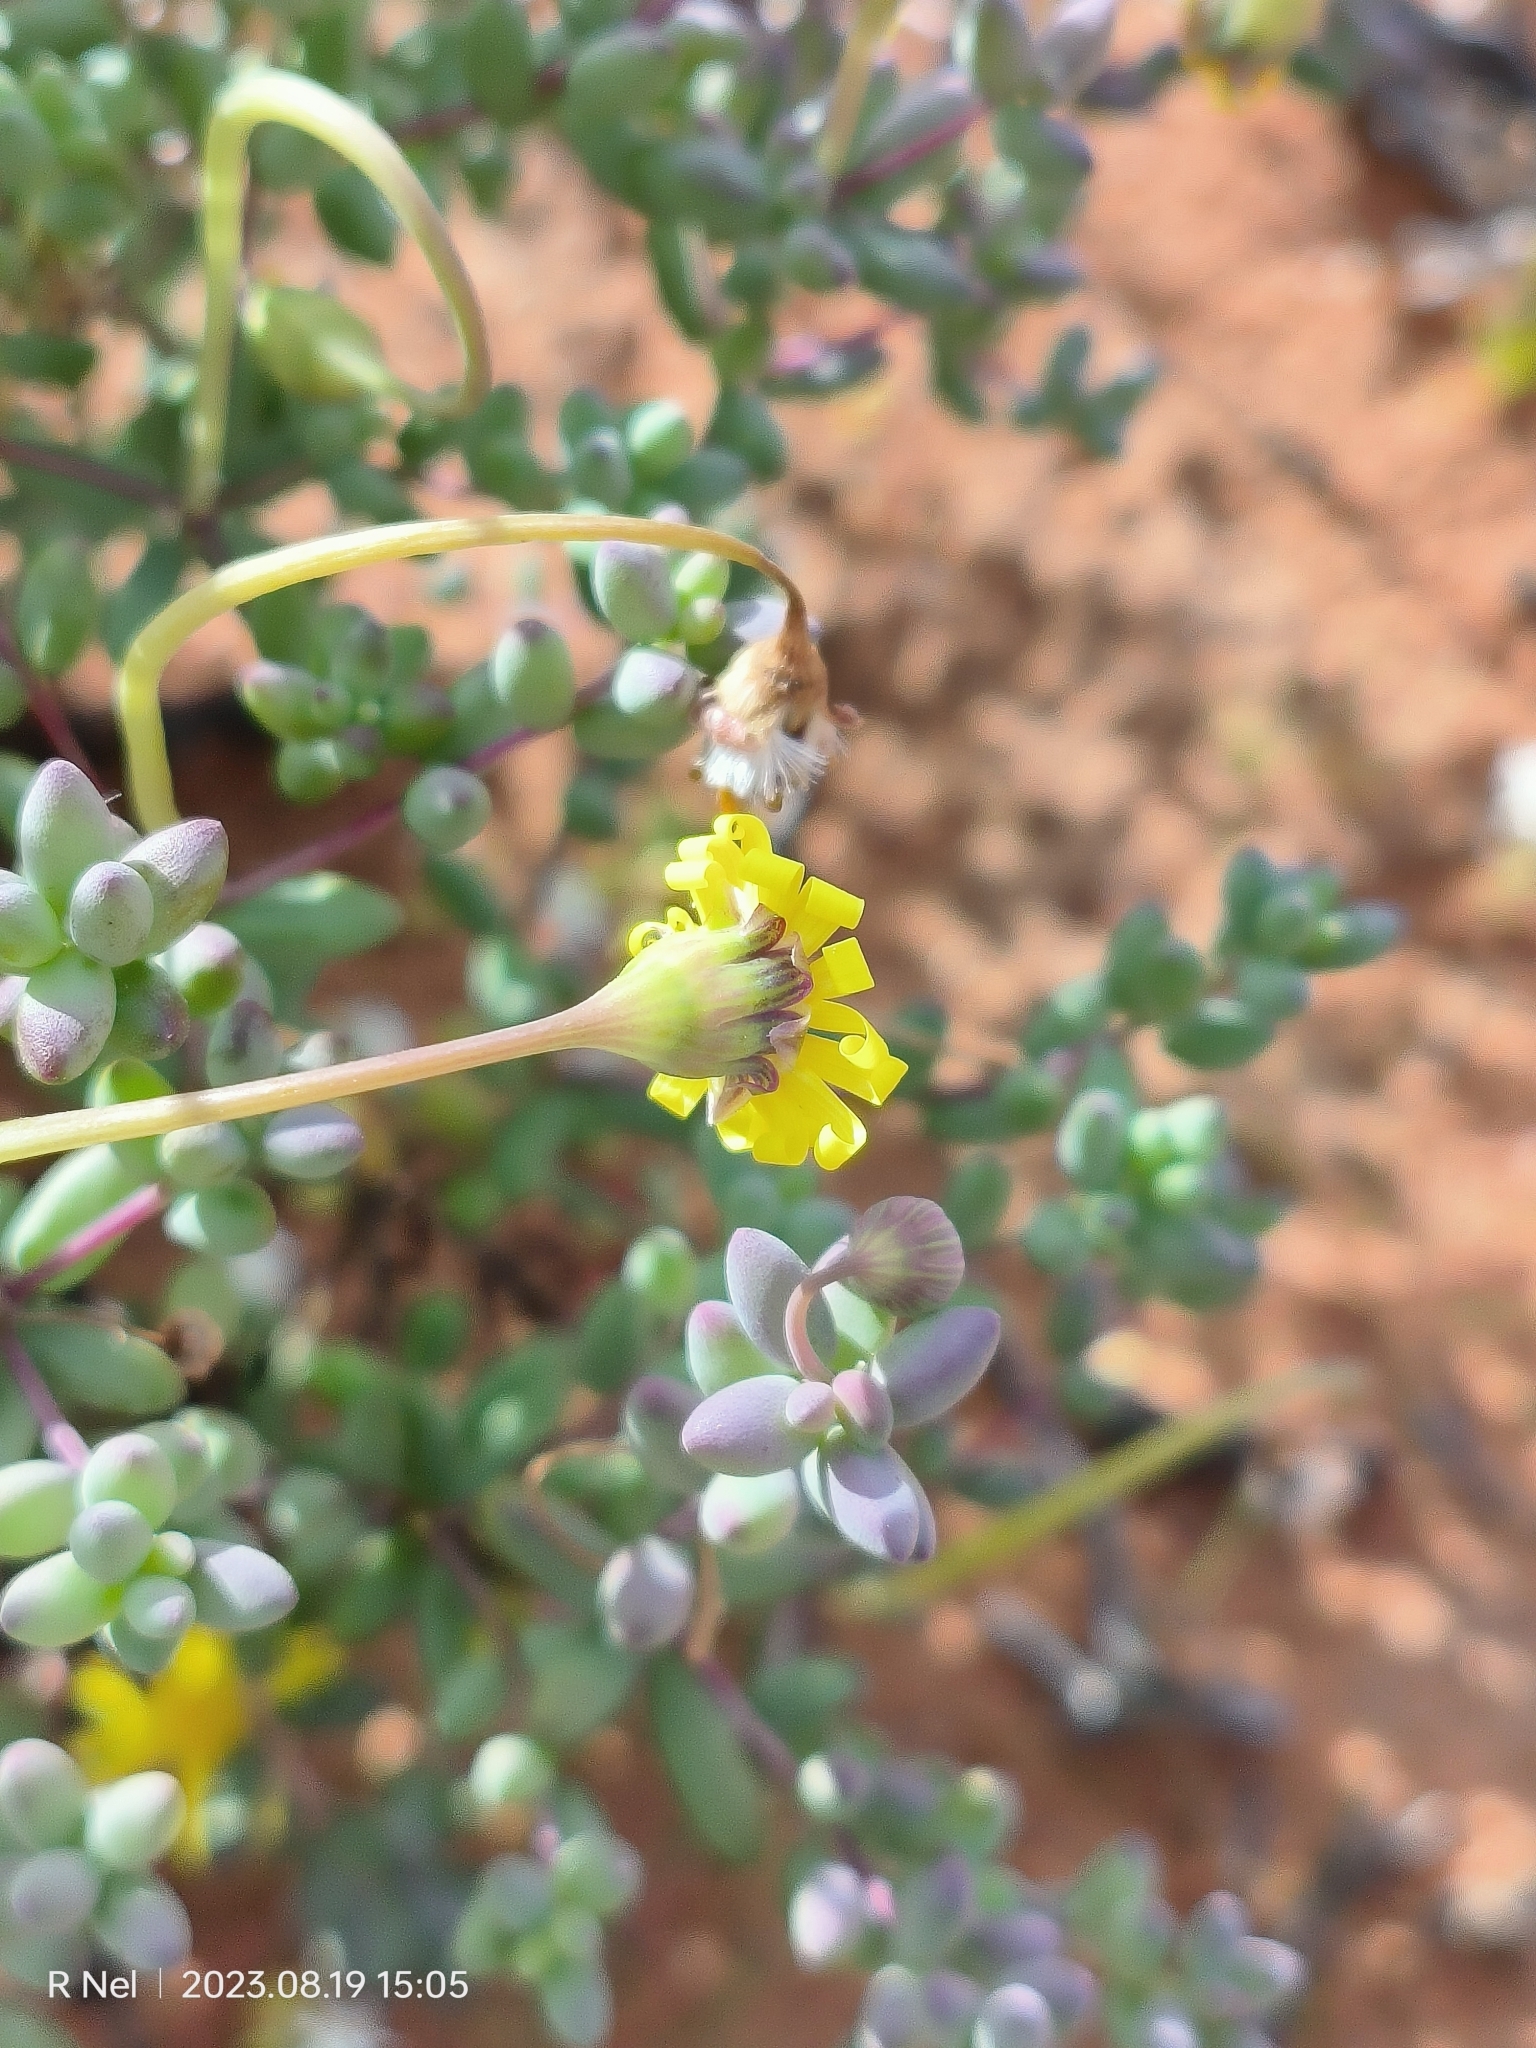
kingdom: Plantae
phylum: Tracheophyta
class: Magnoliopsida
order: Asterales
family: Asteraceae
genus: Crassothonna
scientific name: Crassothonna sedifolia
